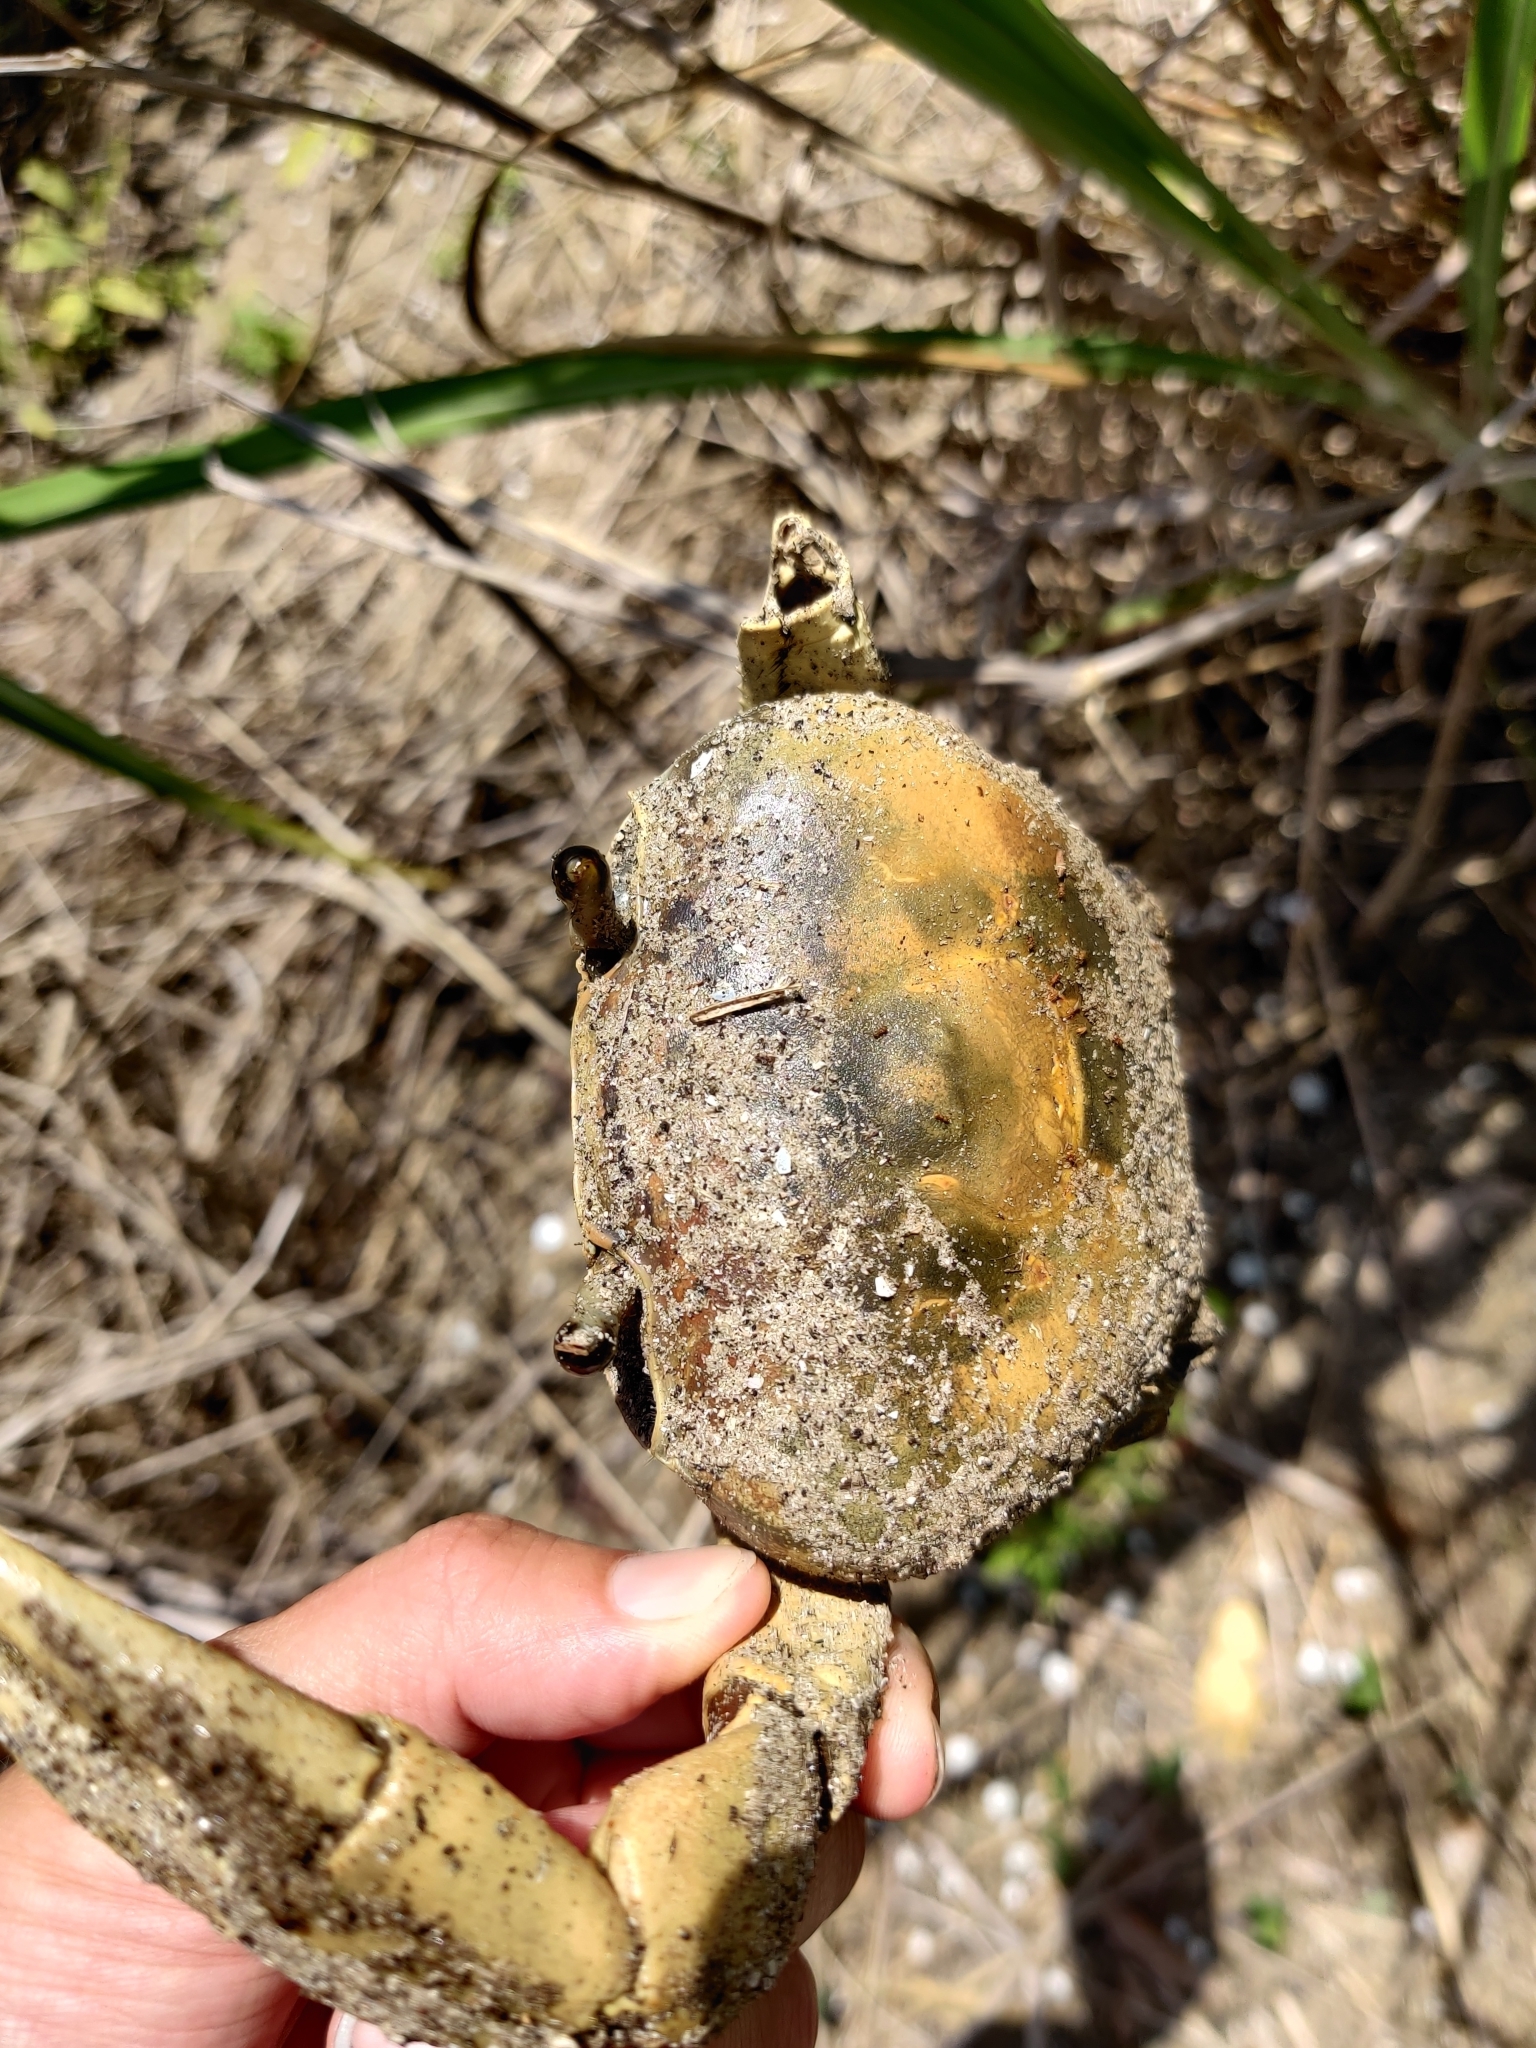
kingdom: Animalia
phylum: Arthropoda
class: Malacostraca
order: Decapoda
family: Gecarcinidae
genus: Cardisoma
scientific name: Cardisoma guanhumi
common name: Great land crab
